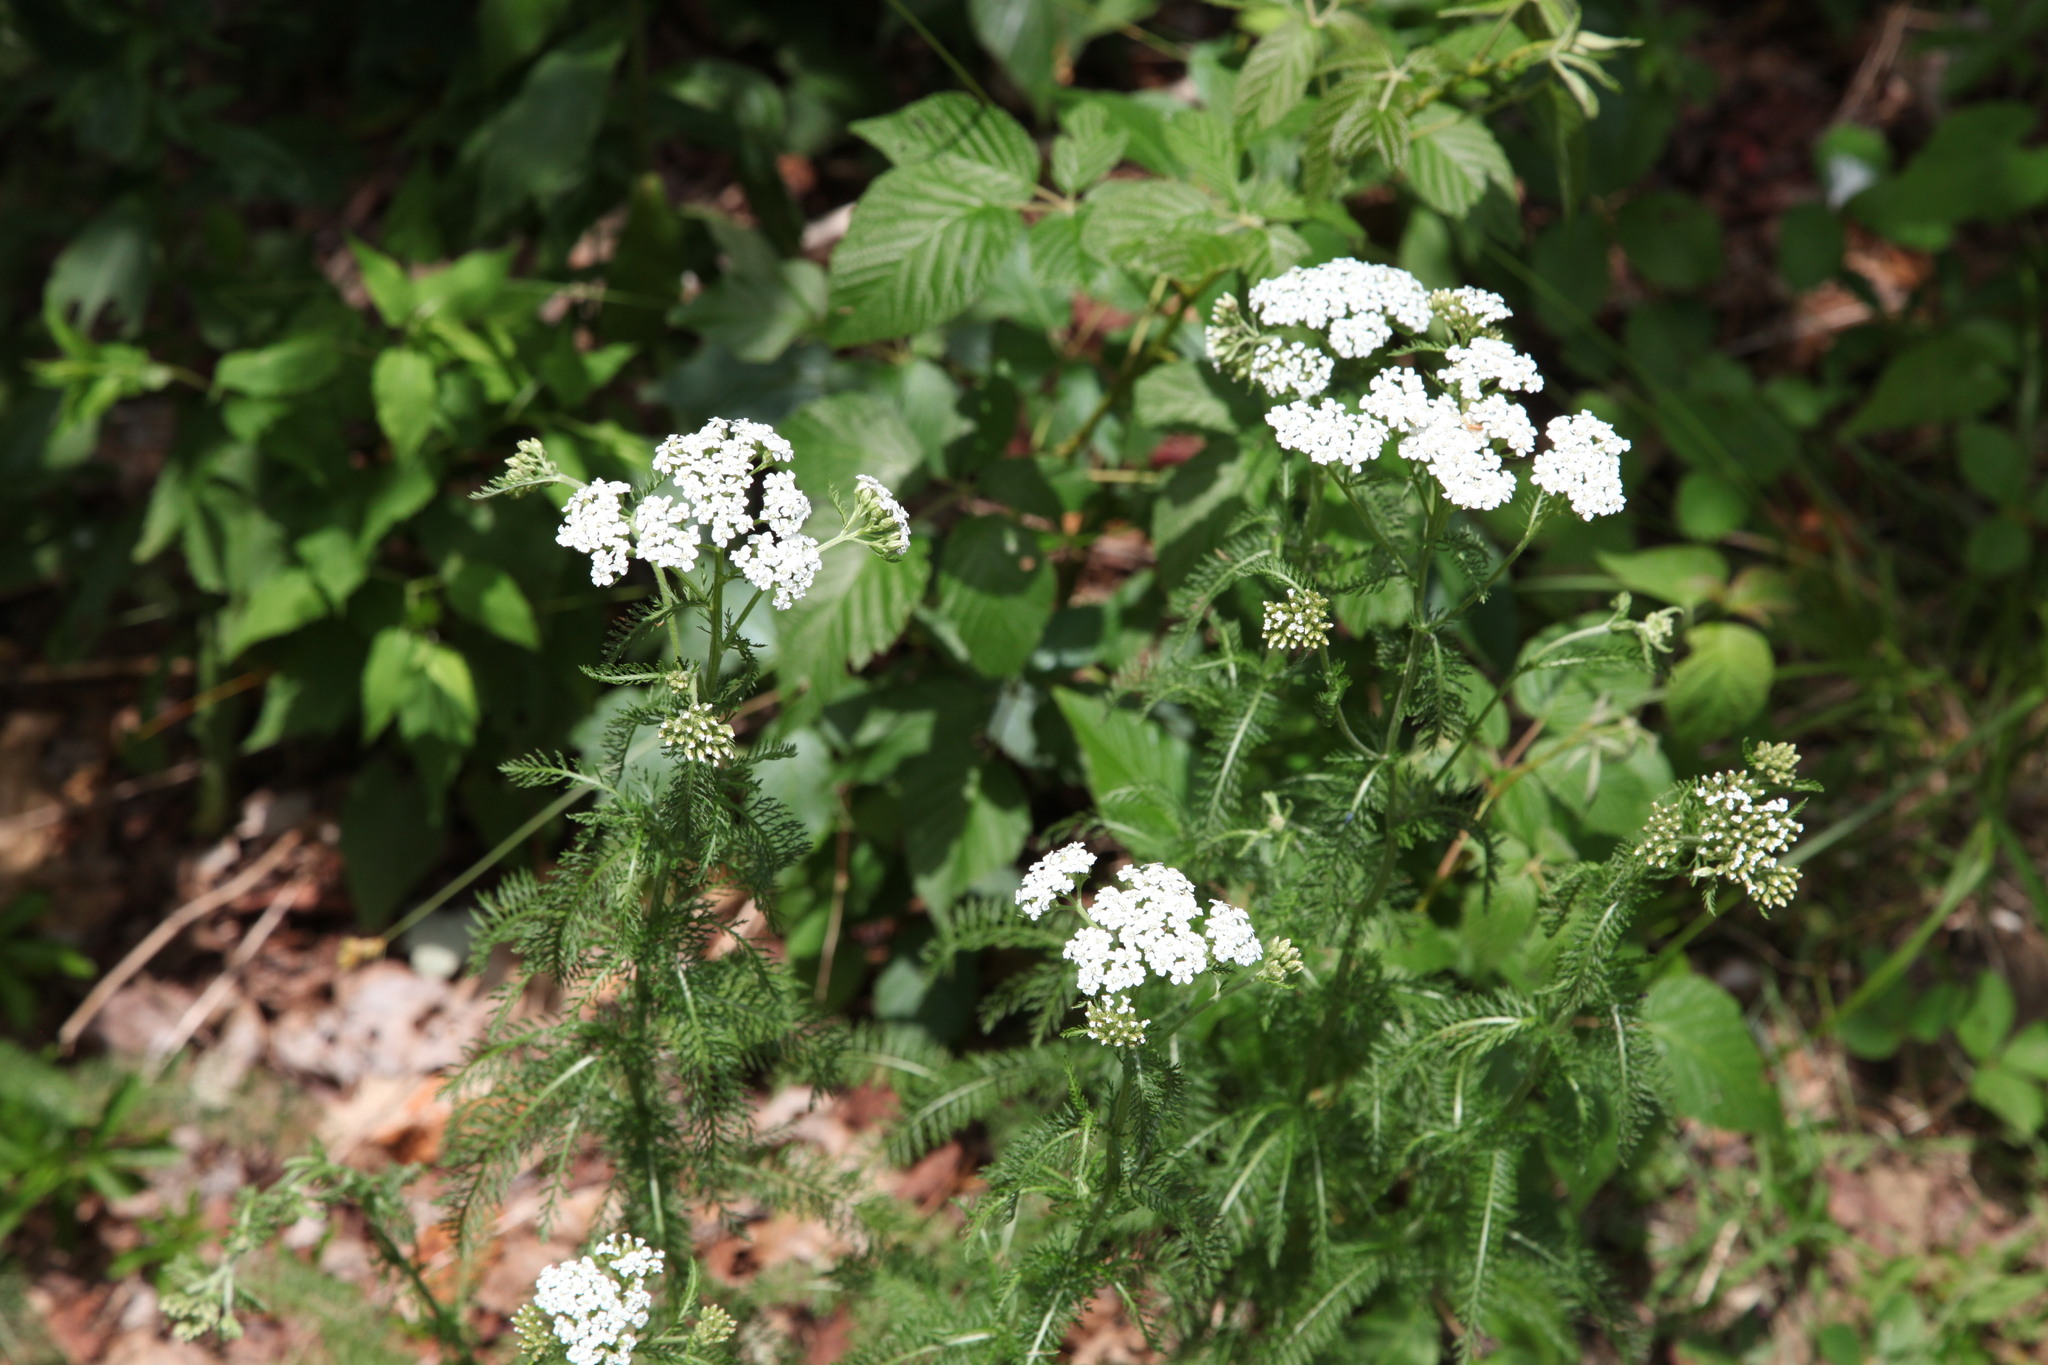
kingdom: Plantae
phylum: Tracheophyta
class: Magnoliopsida
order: Asterales
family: Asteraceae
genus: Achillea
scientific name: Achillea millefolium
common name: Yarrow
